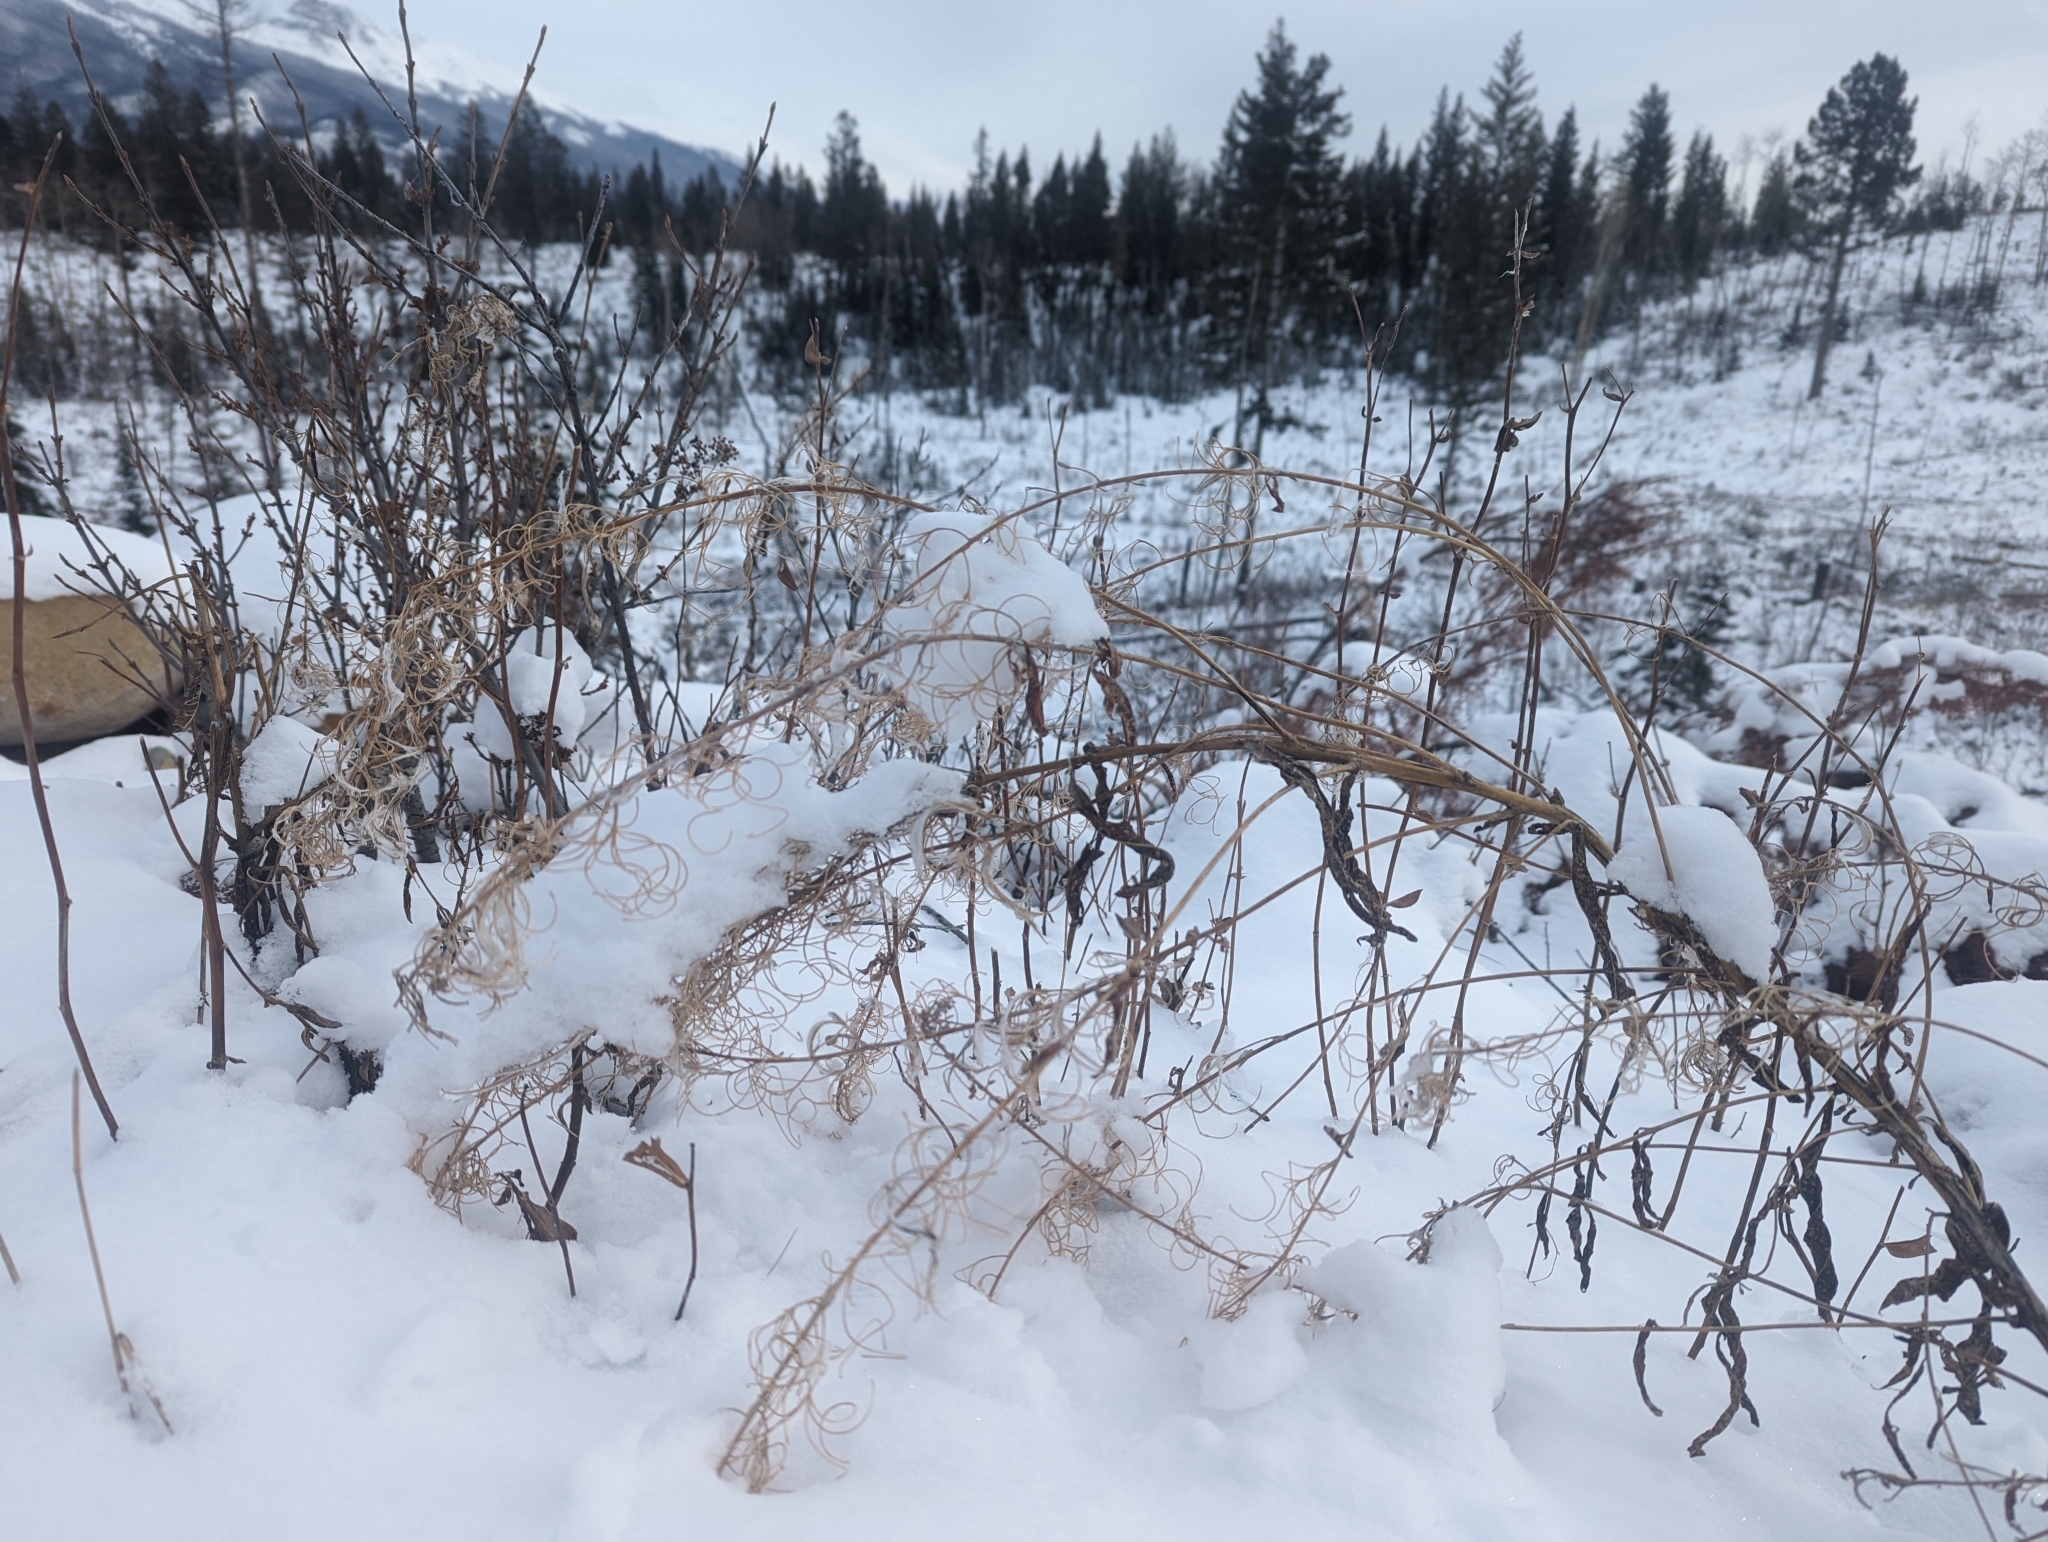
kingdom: Plantae
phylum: Tracheophyta
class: Magnoliopsida
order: Myrtales
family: Onagraceae
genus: Chamaenerion
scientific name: Chamaenerion angustifolium
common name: Fireweed
